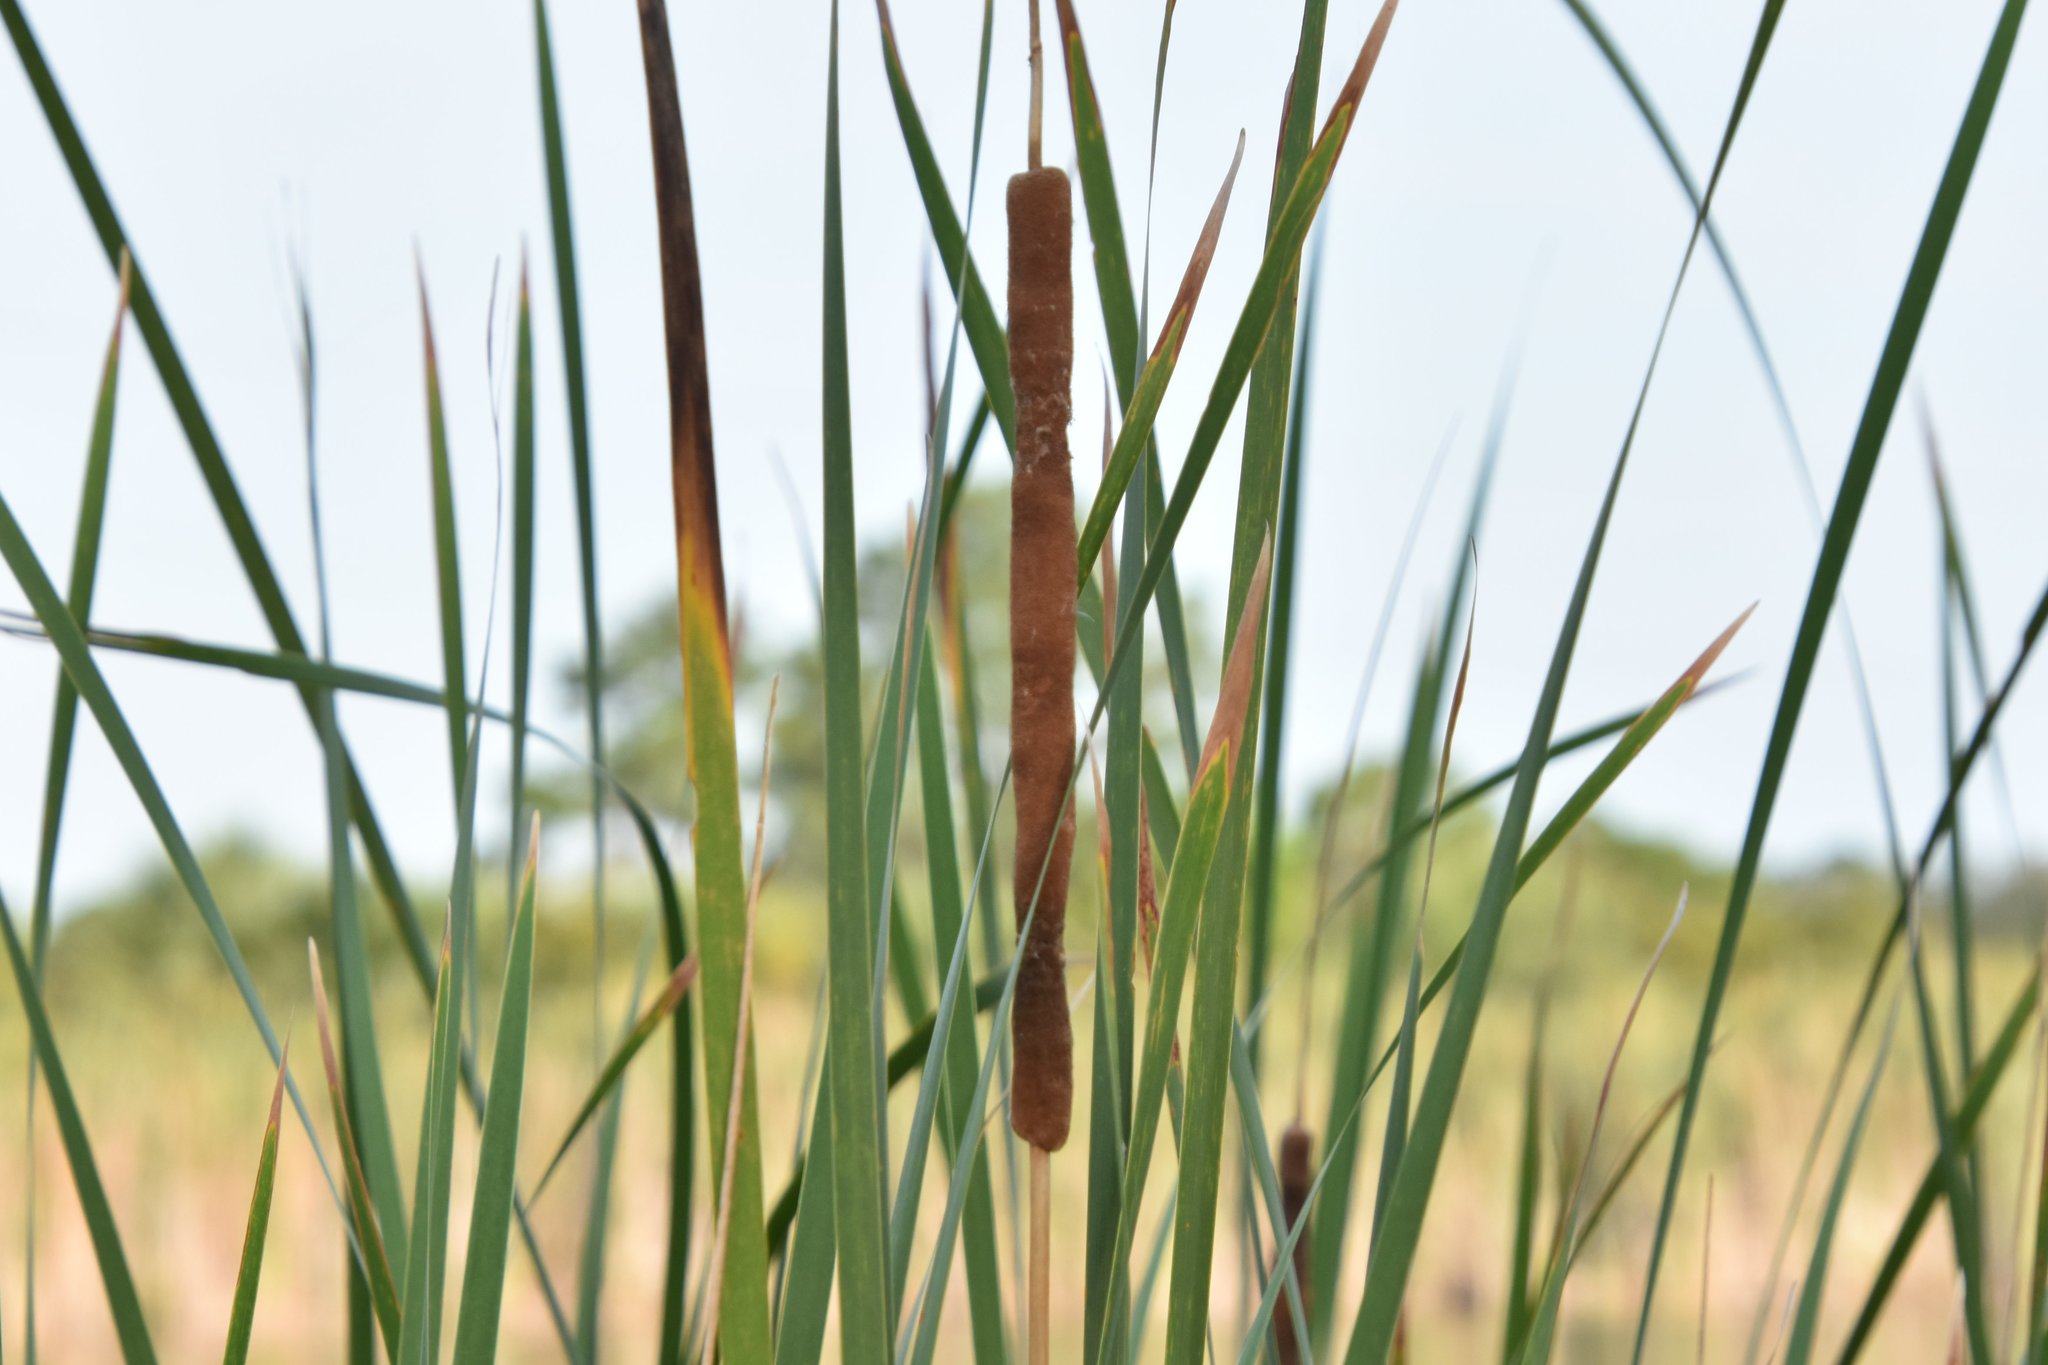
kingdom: Plantae
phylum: Tracheophyta
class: Liliopsida
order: Poales
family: Typhaceae
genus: Typha
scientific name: Typha domingensis
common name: Southern cattail
